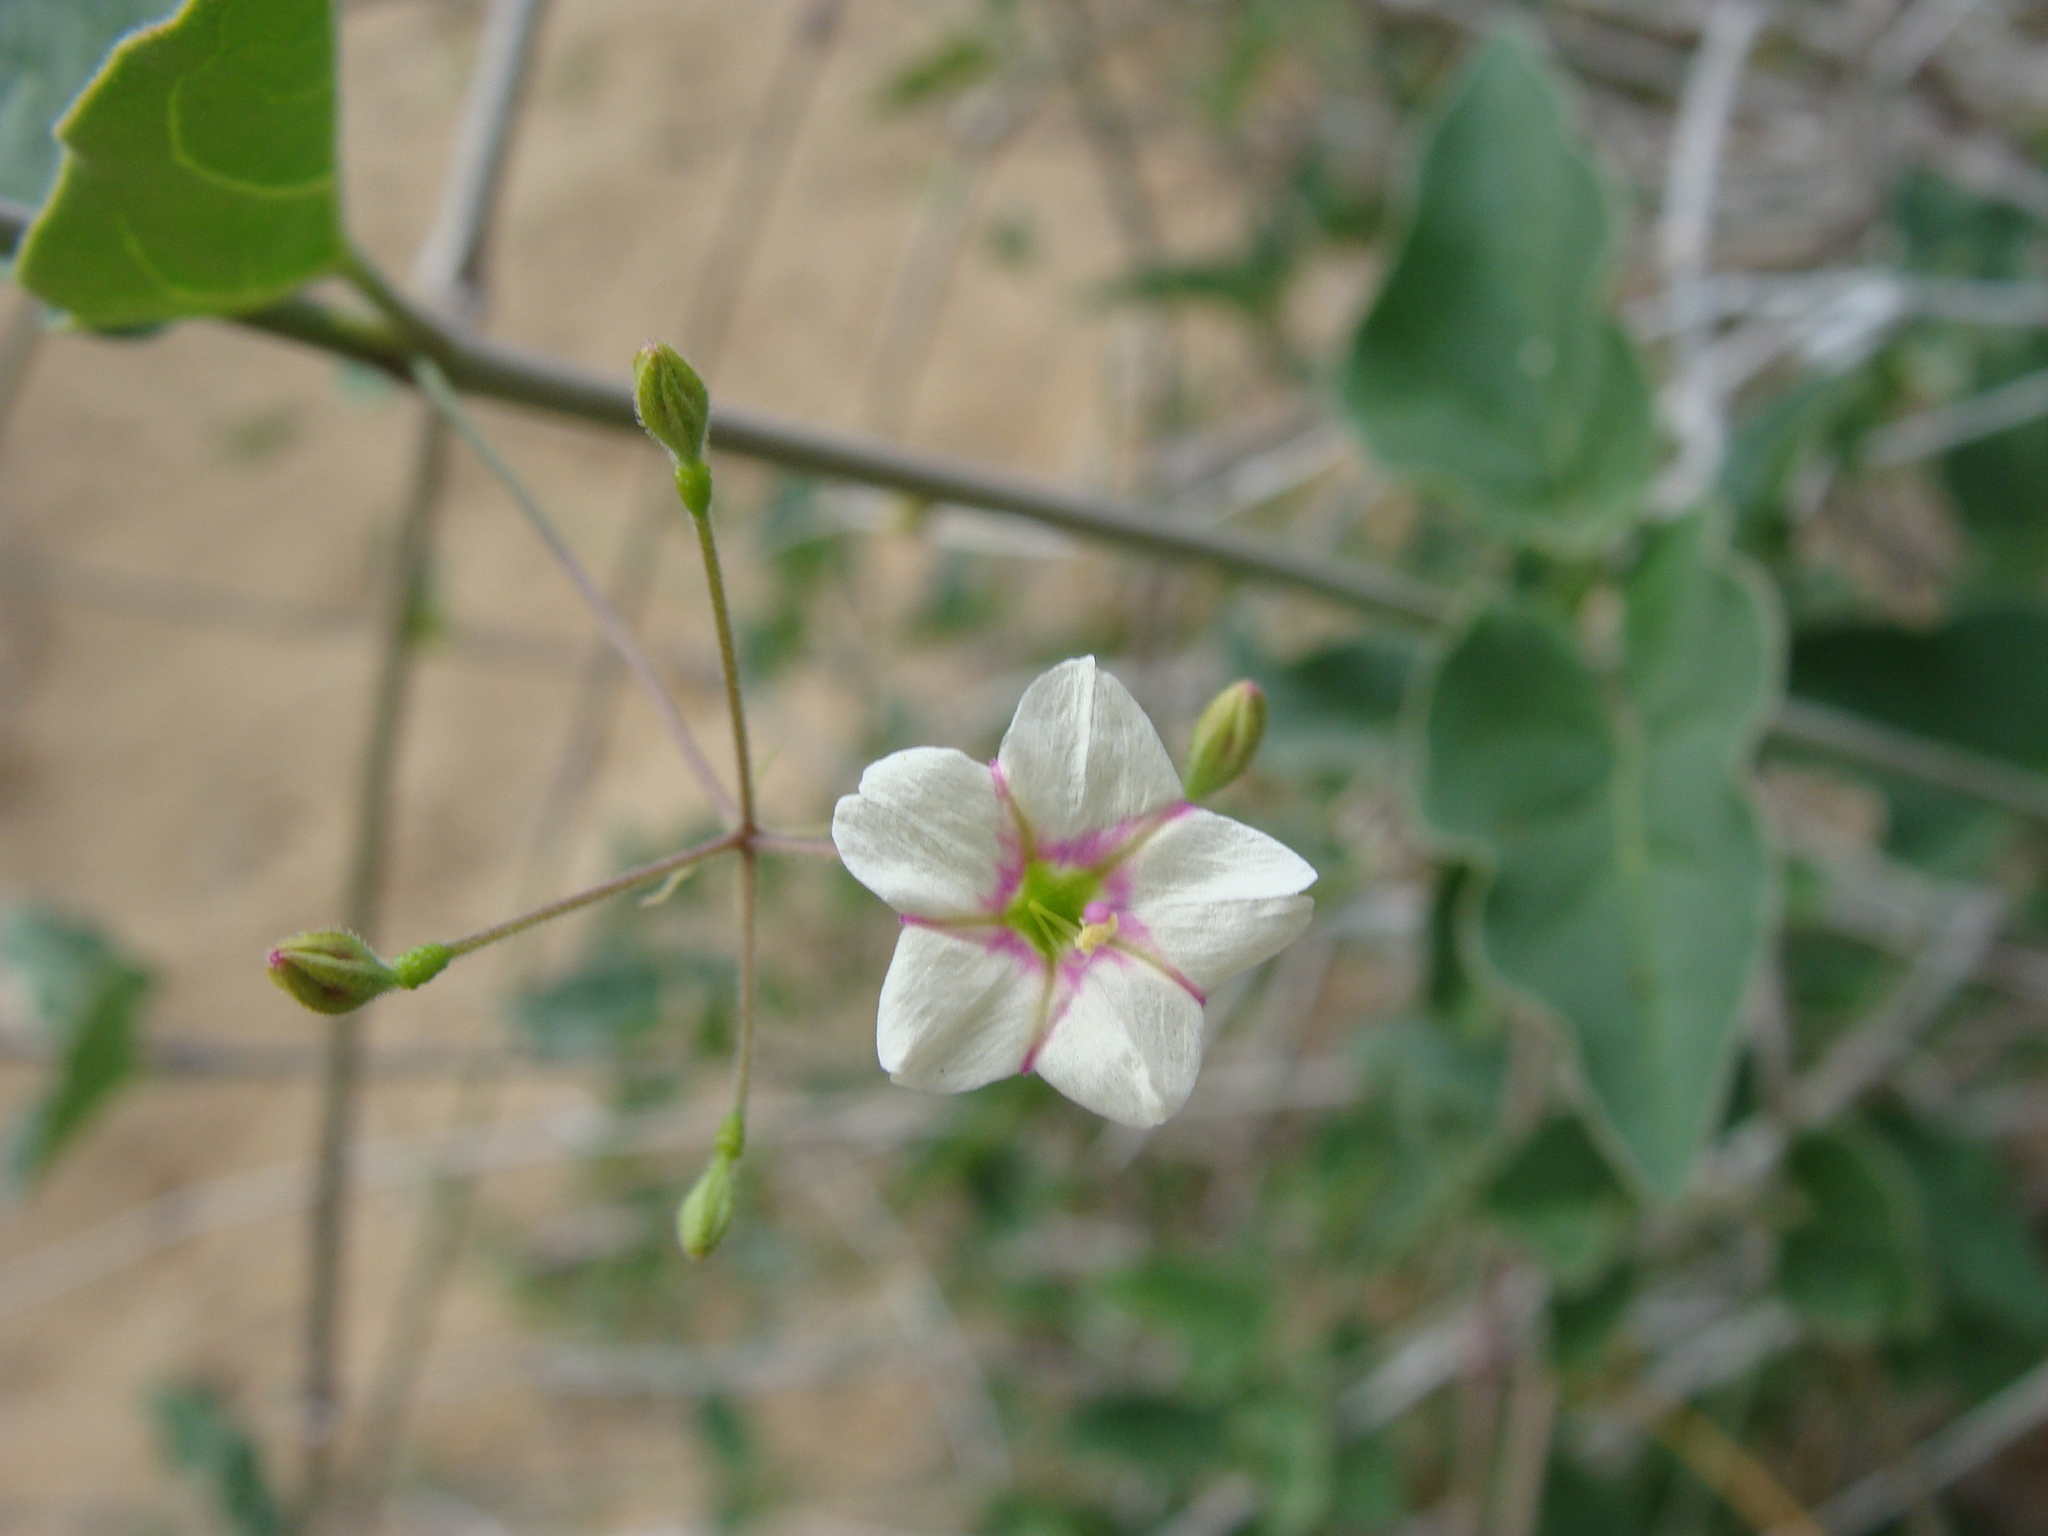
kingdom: Plantae
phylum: Tracheophyta
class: Magnoliopsida
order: Caryophyllales
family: Nyctaginaceae
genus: Commicarpus
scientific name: Commicarpus brandegeei
